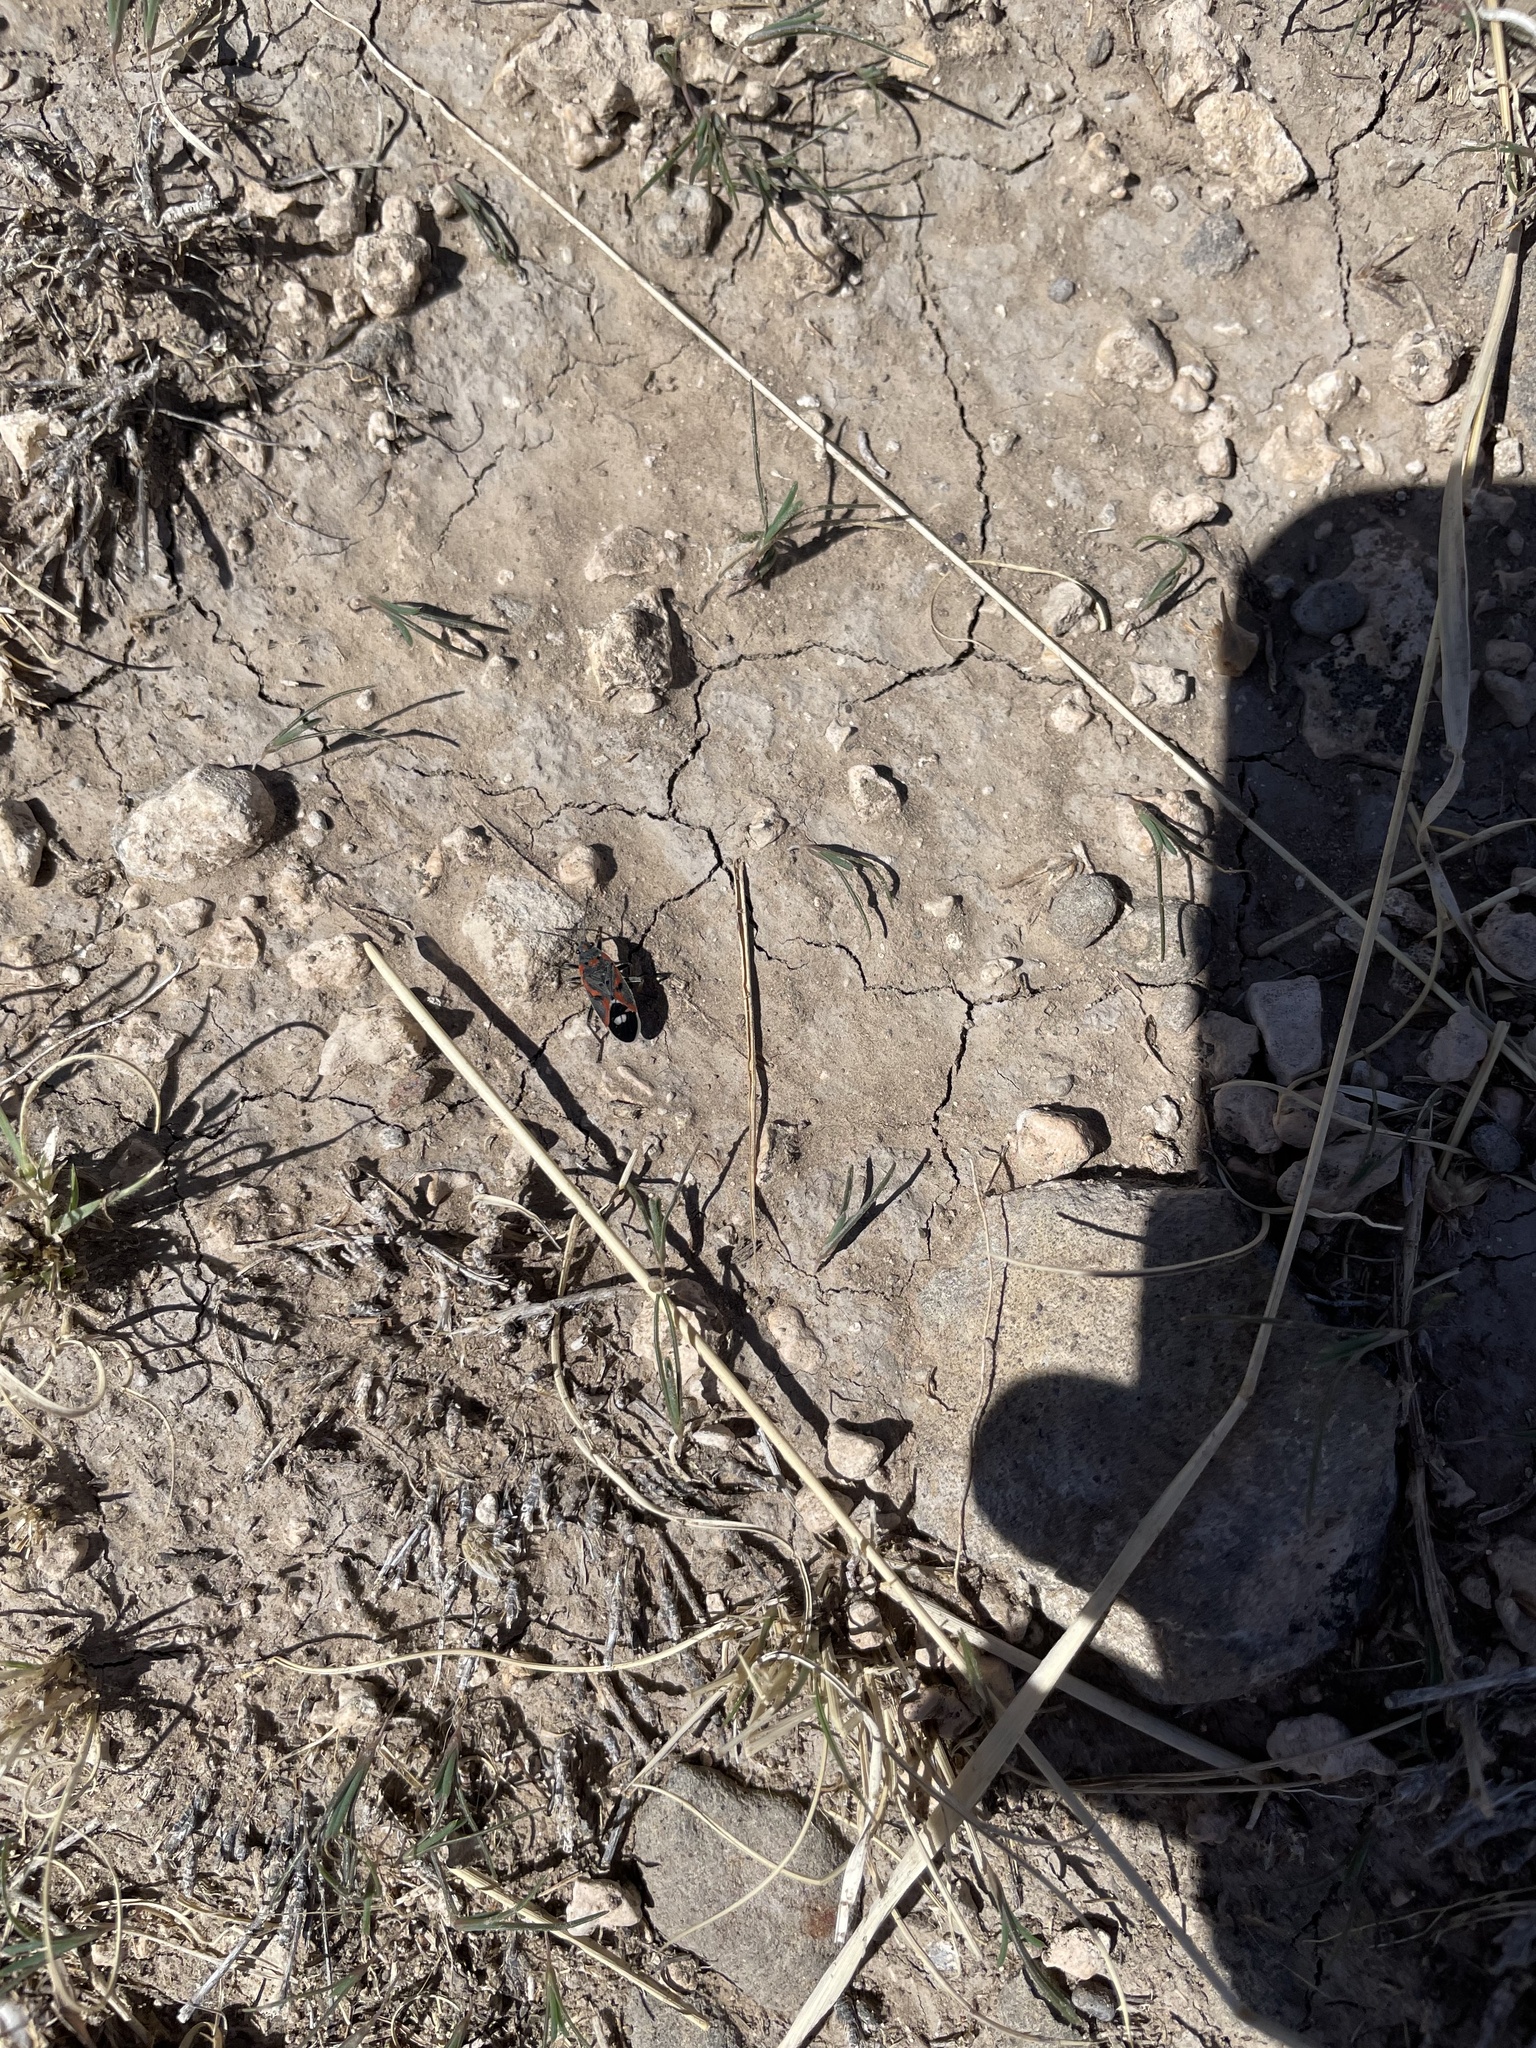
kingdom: Animalia
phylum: Arthropoda
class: Insecta
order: Hemiptera
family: Lygaeidae
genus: Lygaeus
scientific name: Lygaeus kalmii
